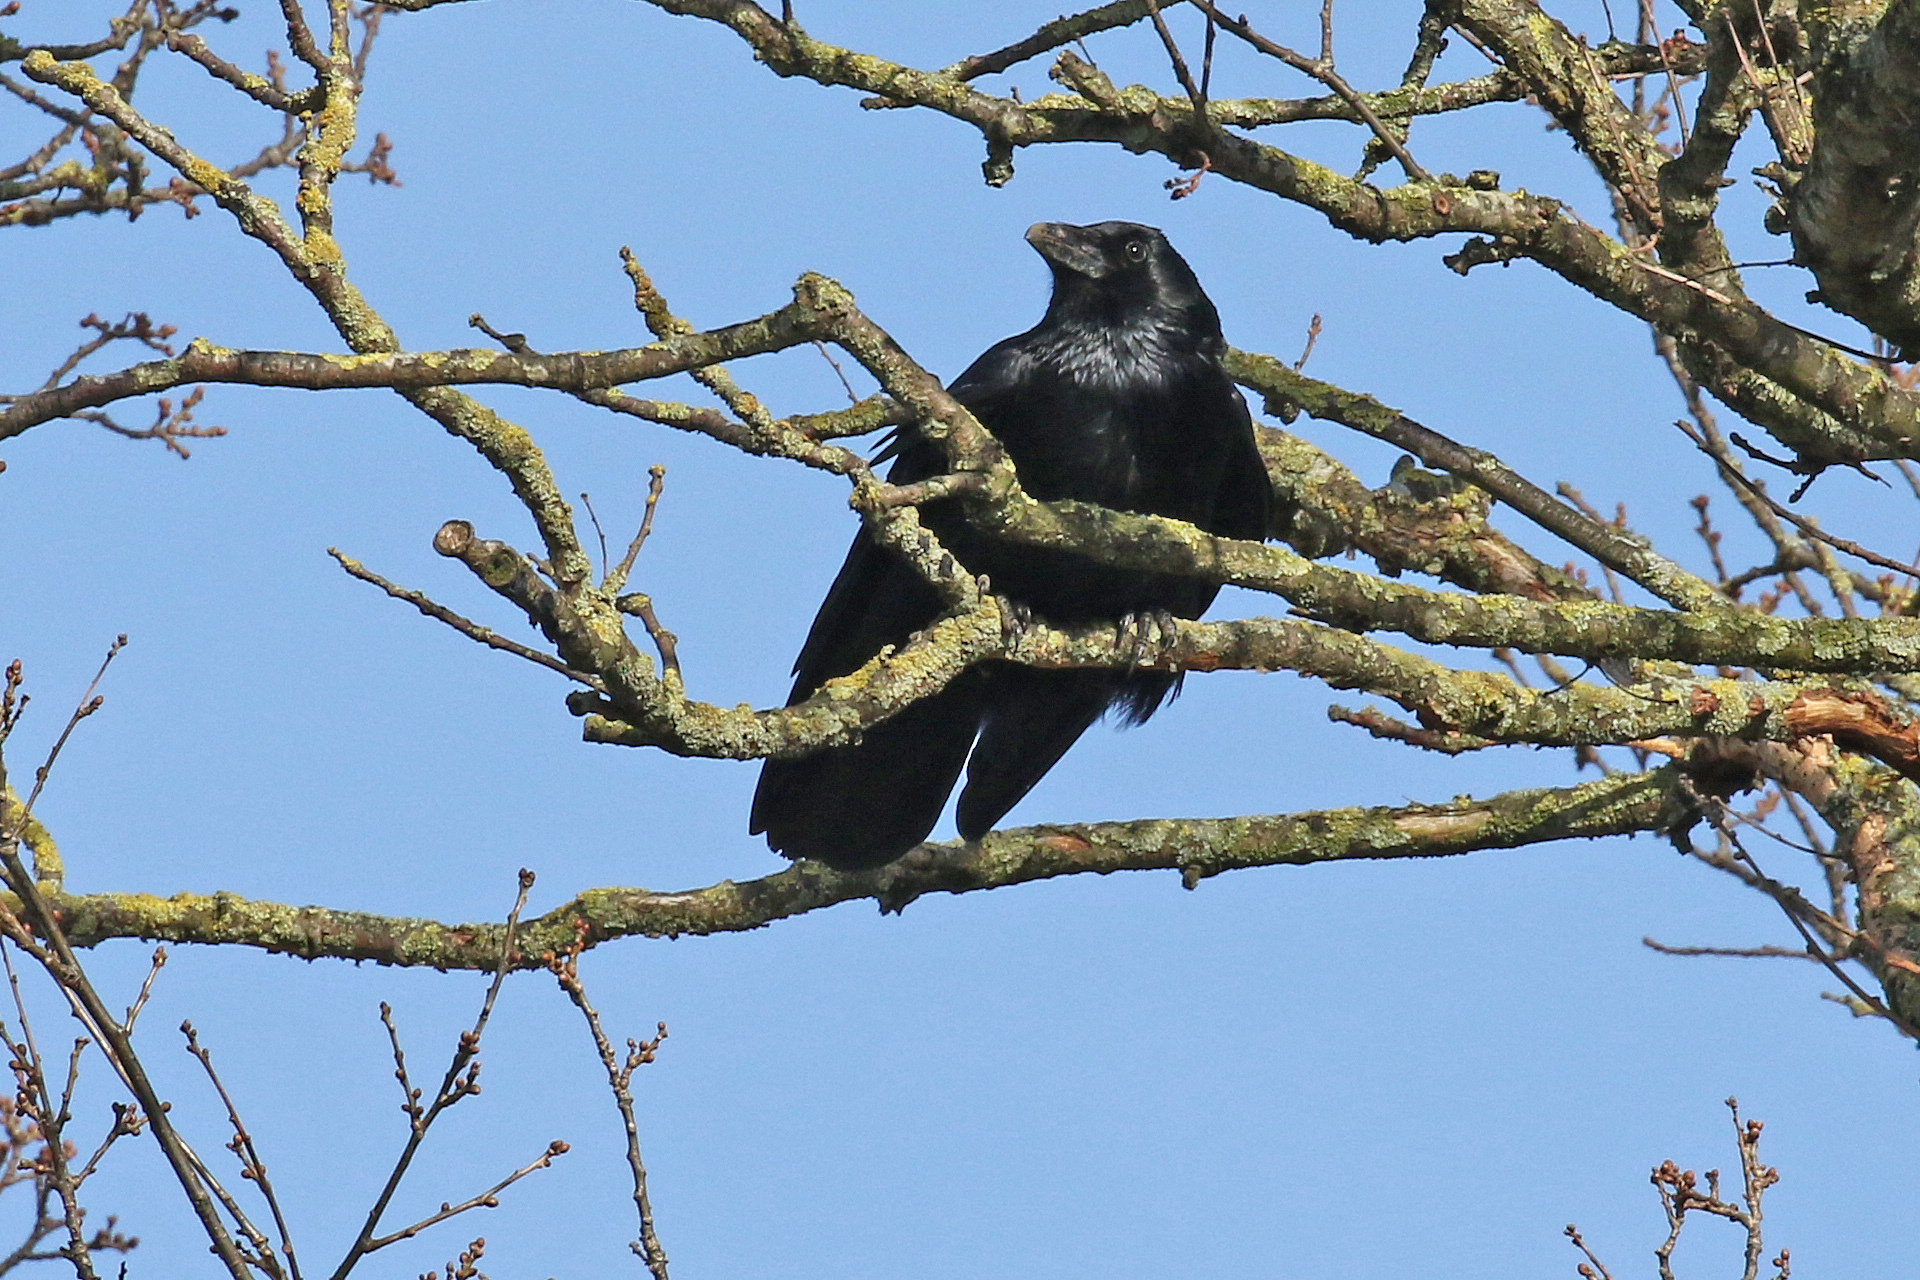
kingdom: Animalia
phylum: Chordata
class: Aves
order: Passeriformes
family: Corvidae
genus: Corvus
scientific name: Corvus corone
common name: Carrion crow
